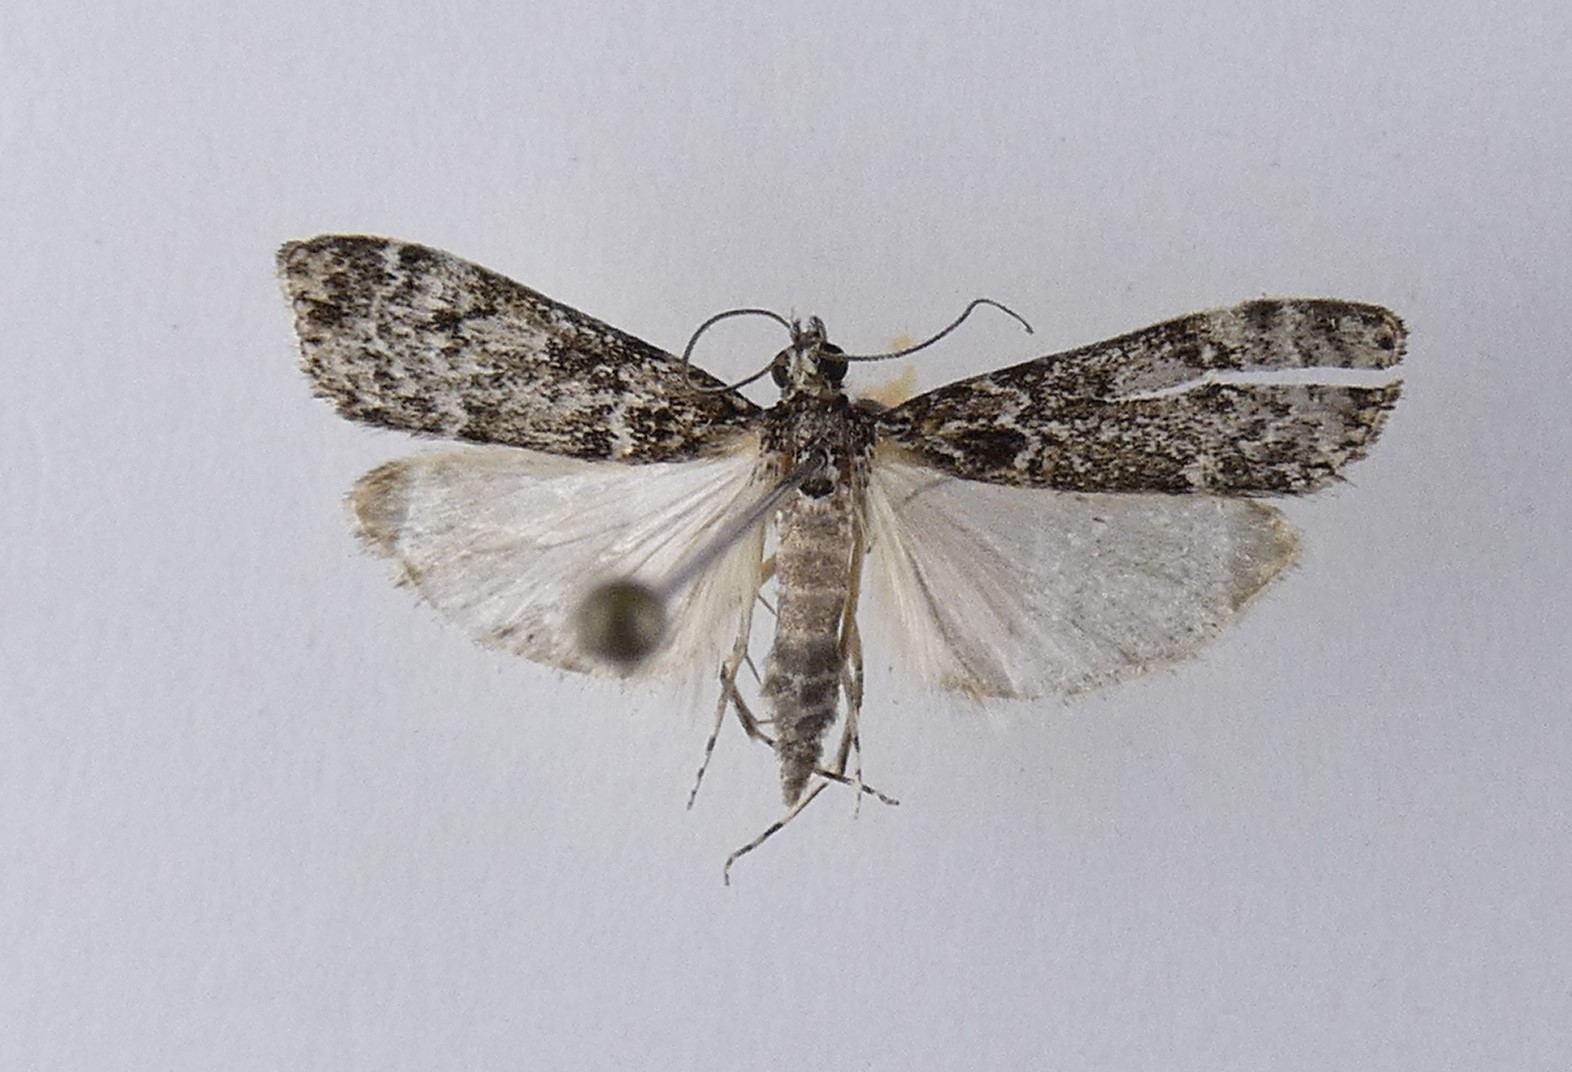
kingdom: Animalia
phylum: Arthropoda
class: Insecta
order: Lepidoptera
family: Crambidae
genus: Eudonia
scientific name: Eudonia philerga
